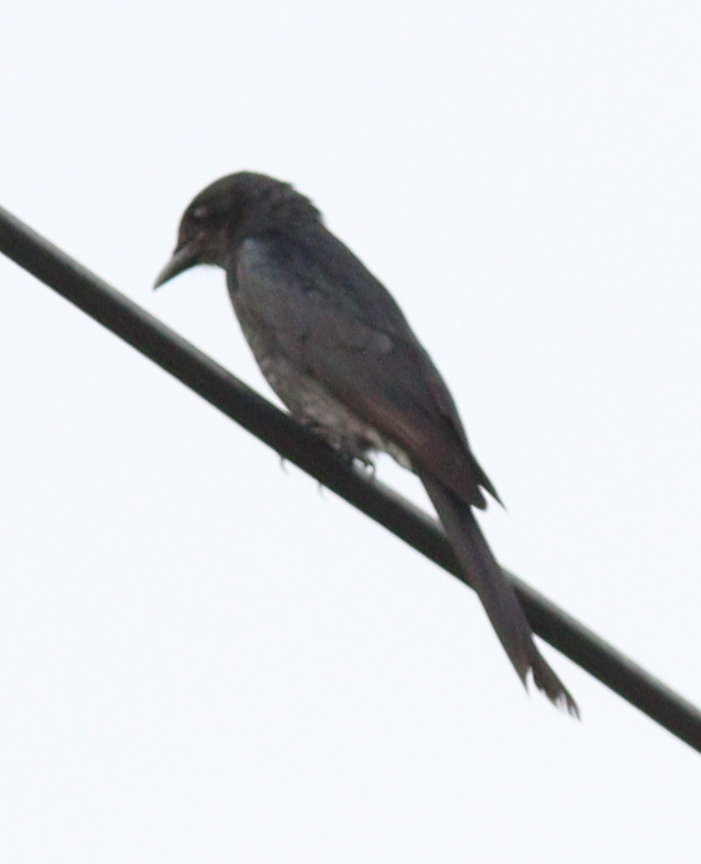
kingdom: Animalia
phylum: Chordata
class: Aves
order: Passeriformes
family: Dicruridae
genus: Dicrurus
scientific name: Dicrurus macrocercus
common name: Black drongo
